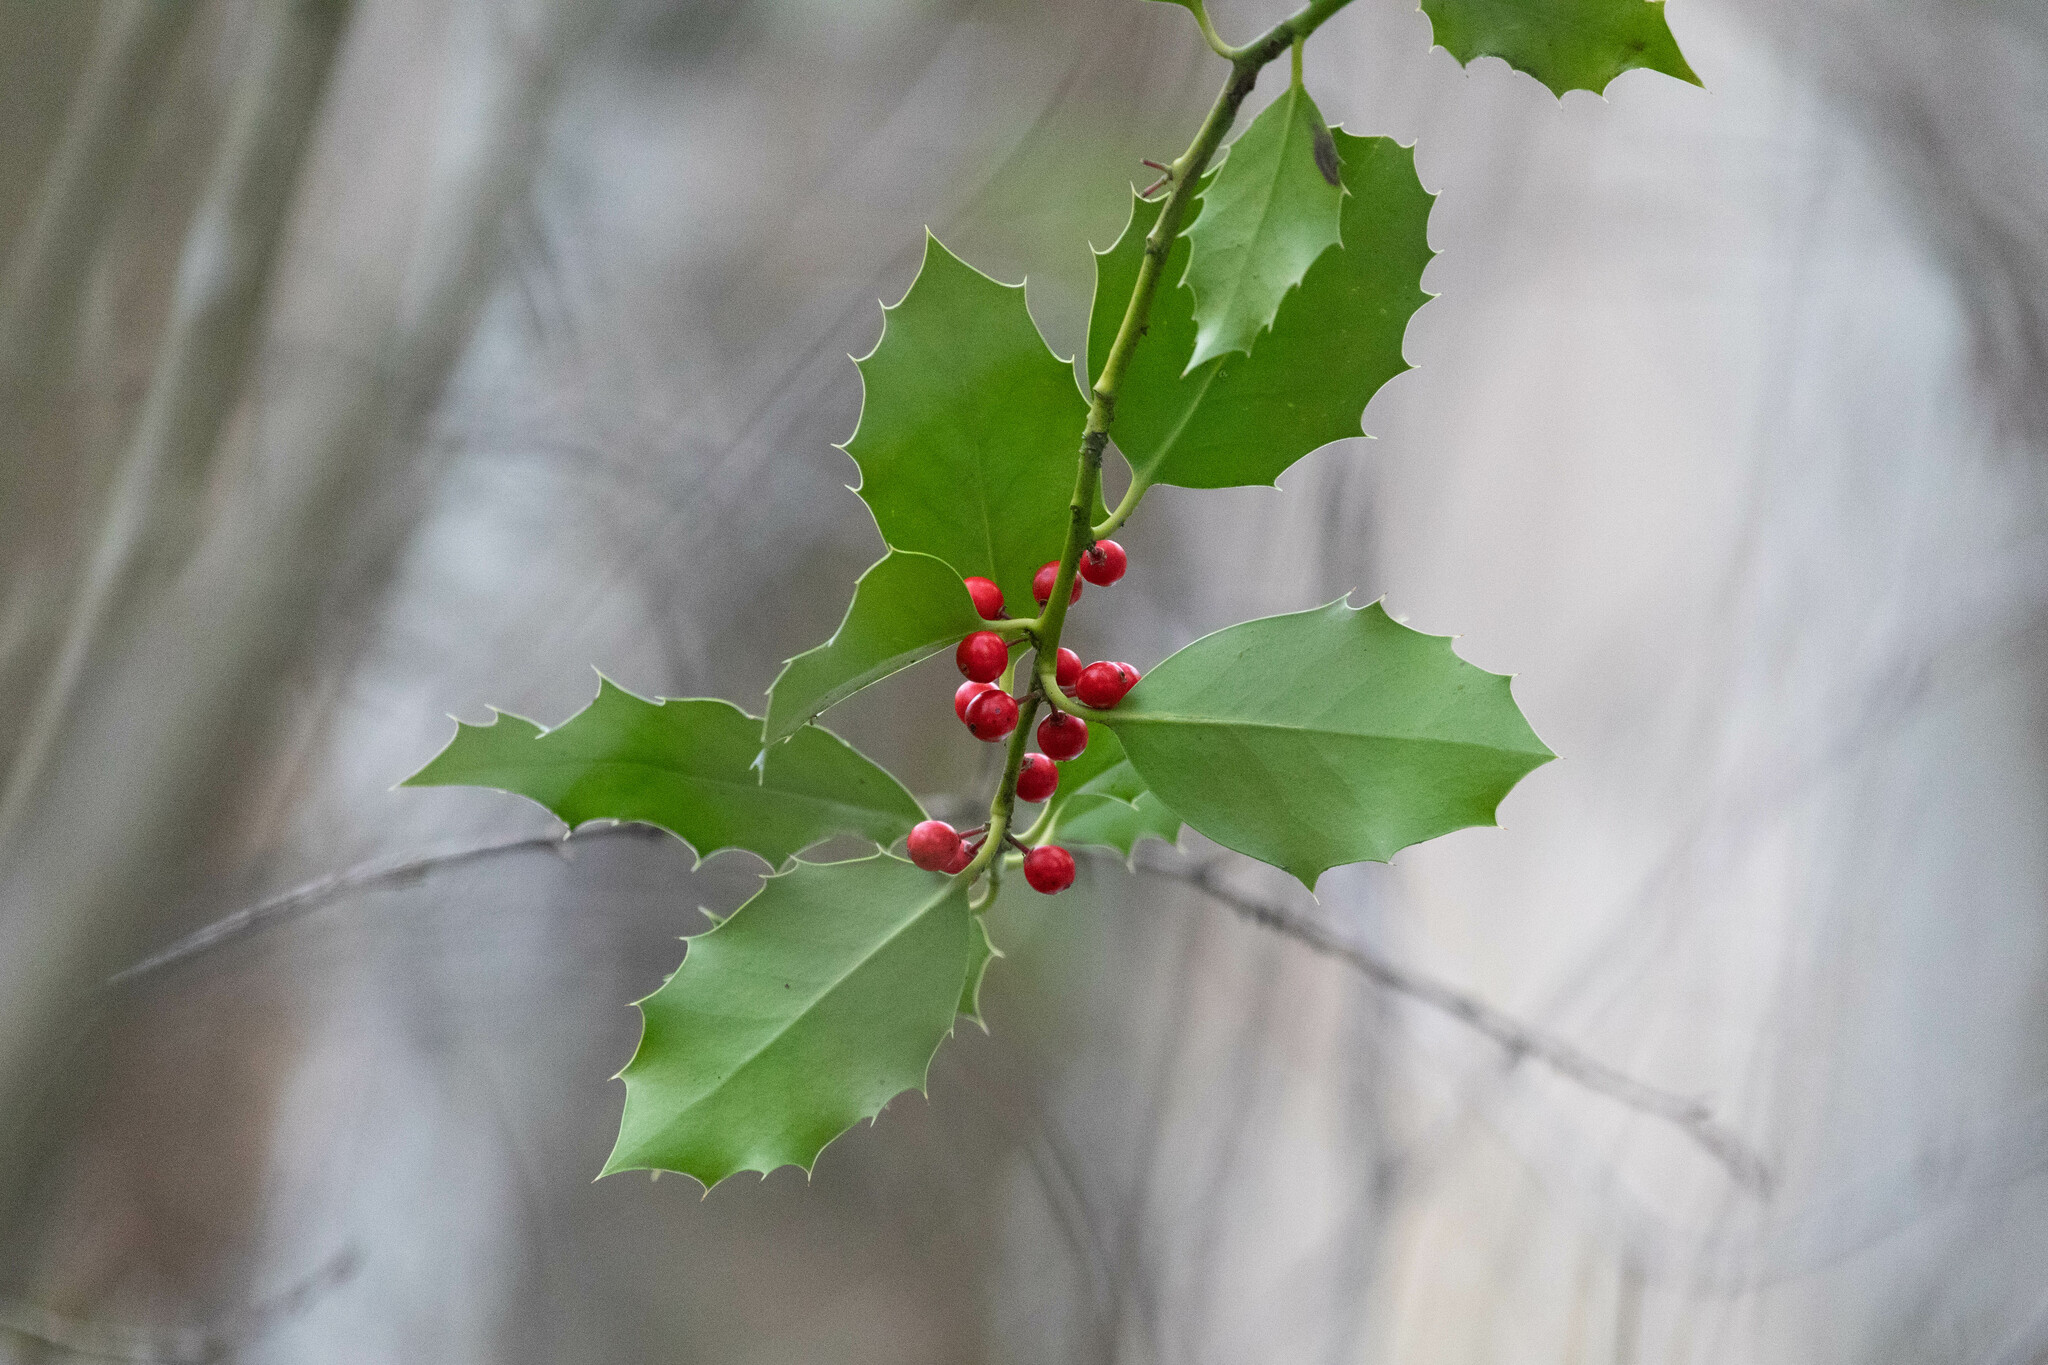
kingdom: Plantae
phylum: Tracheophyta
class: Magnoliopsida
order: Aquifoliales
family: Aquifoliaceae
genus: Ilex
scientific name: Ilex aquifolium
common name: English holly
